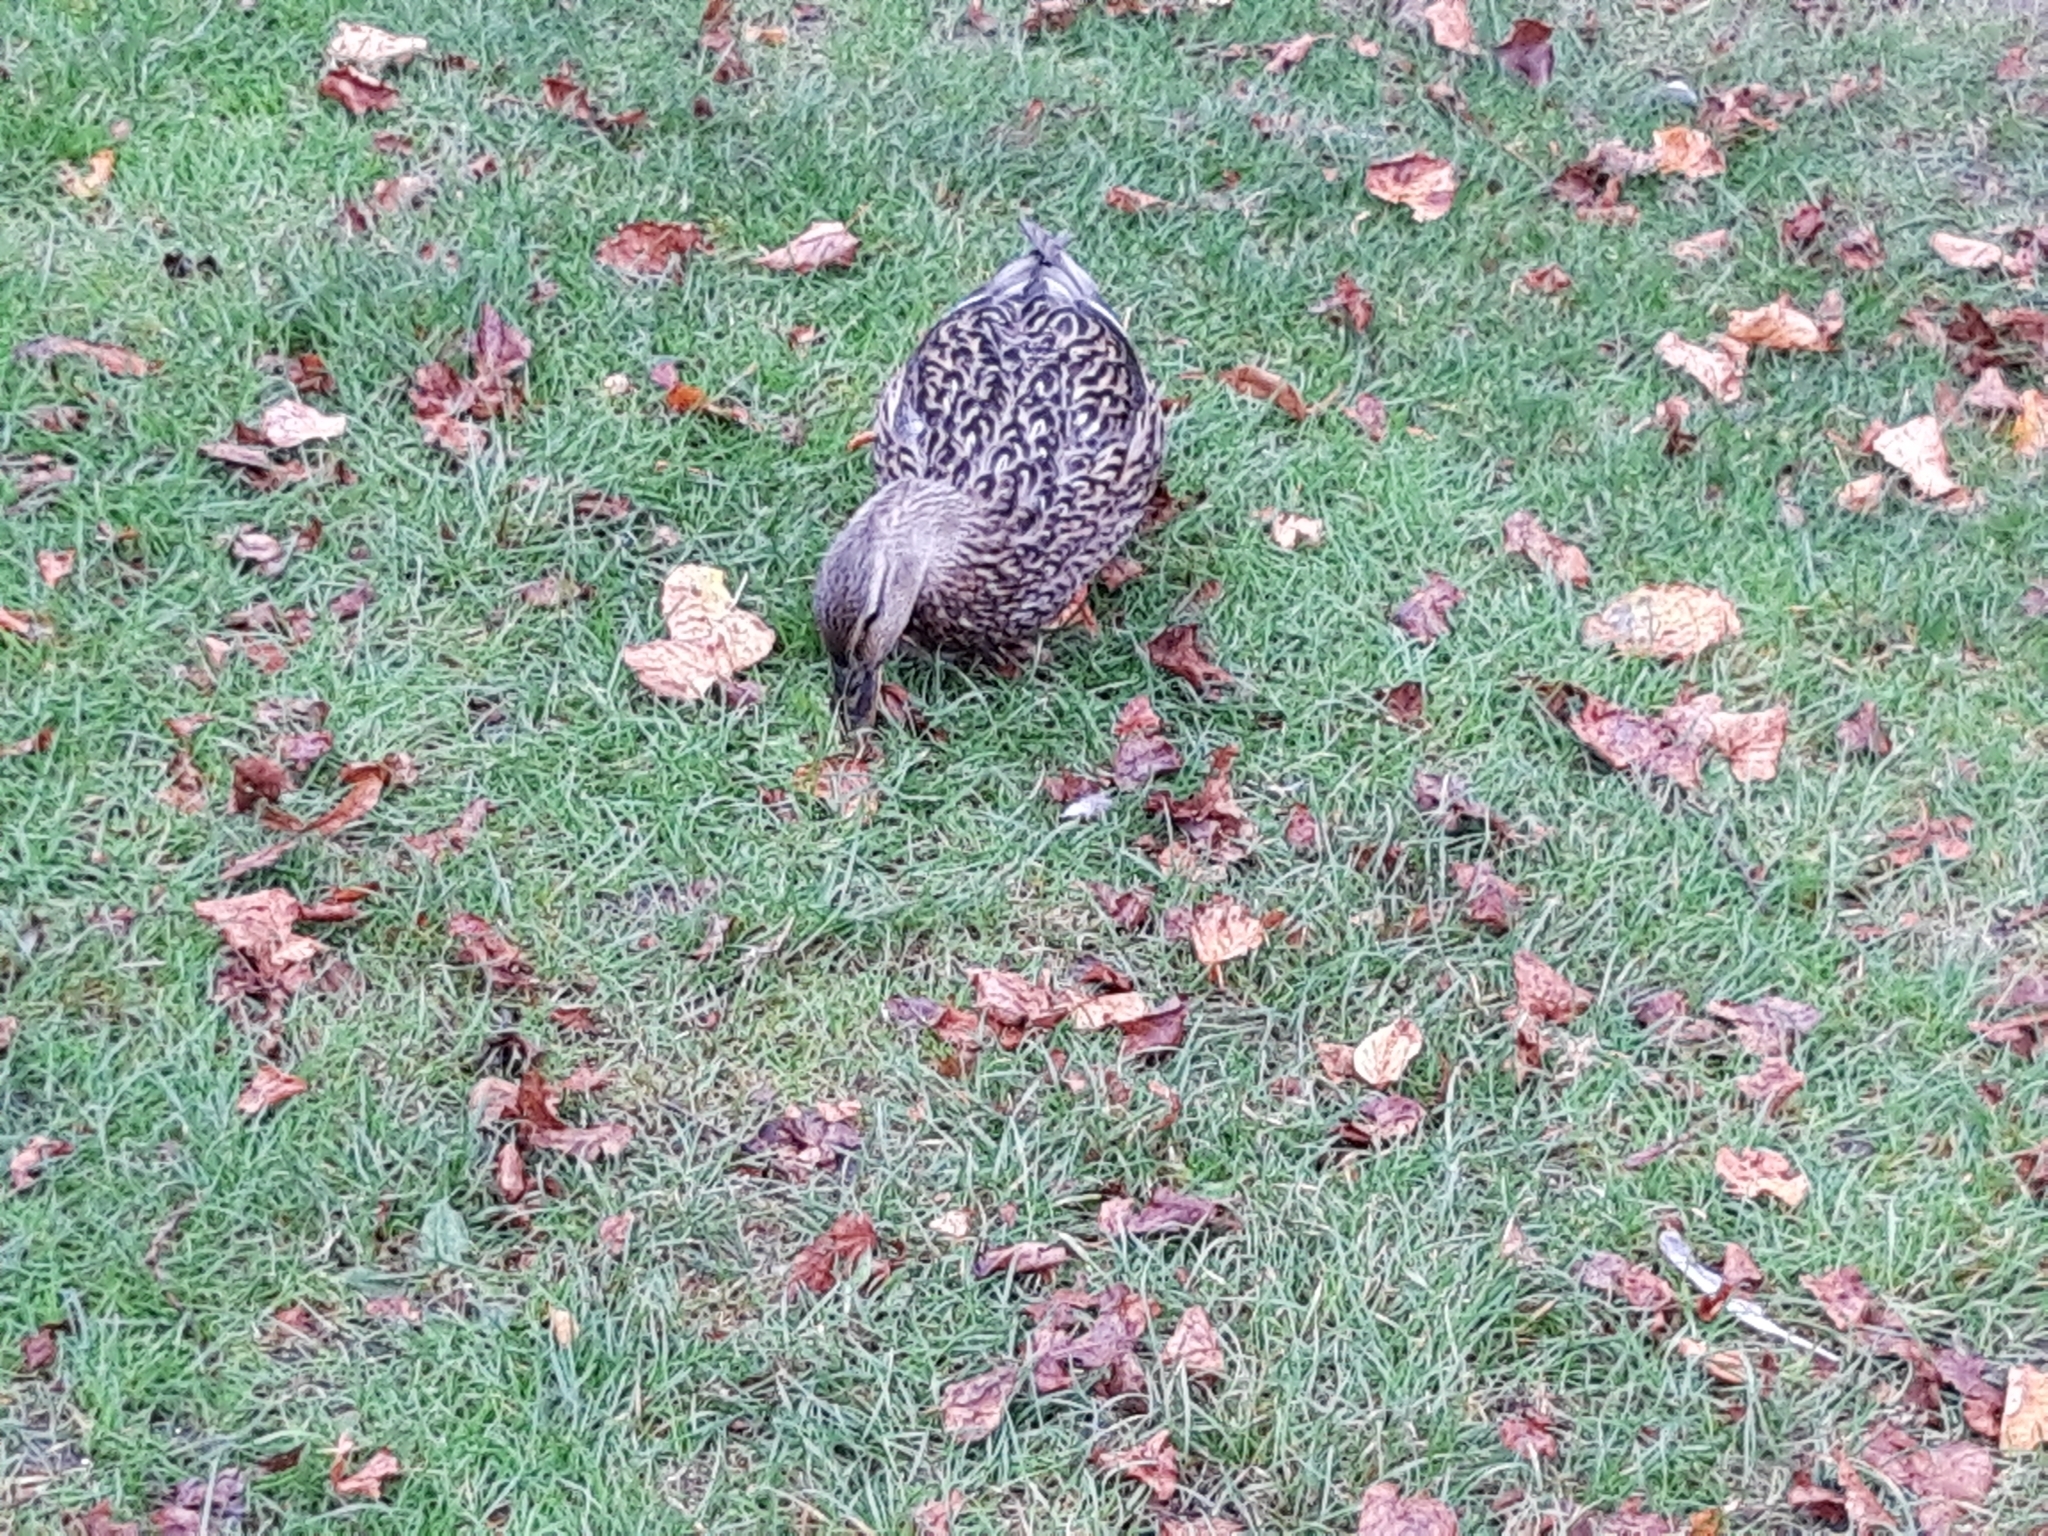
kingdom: Animalia
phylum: Chordata
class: Aves
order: Anseriformes
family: Anatidae
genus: Anas
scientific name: Anas platyrhynchos
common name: Mallard
